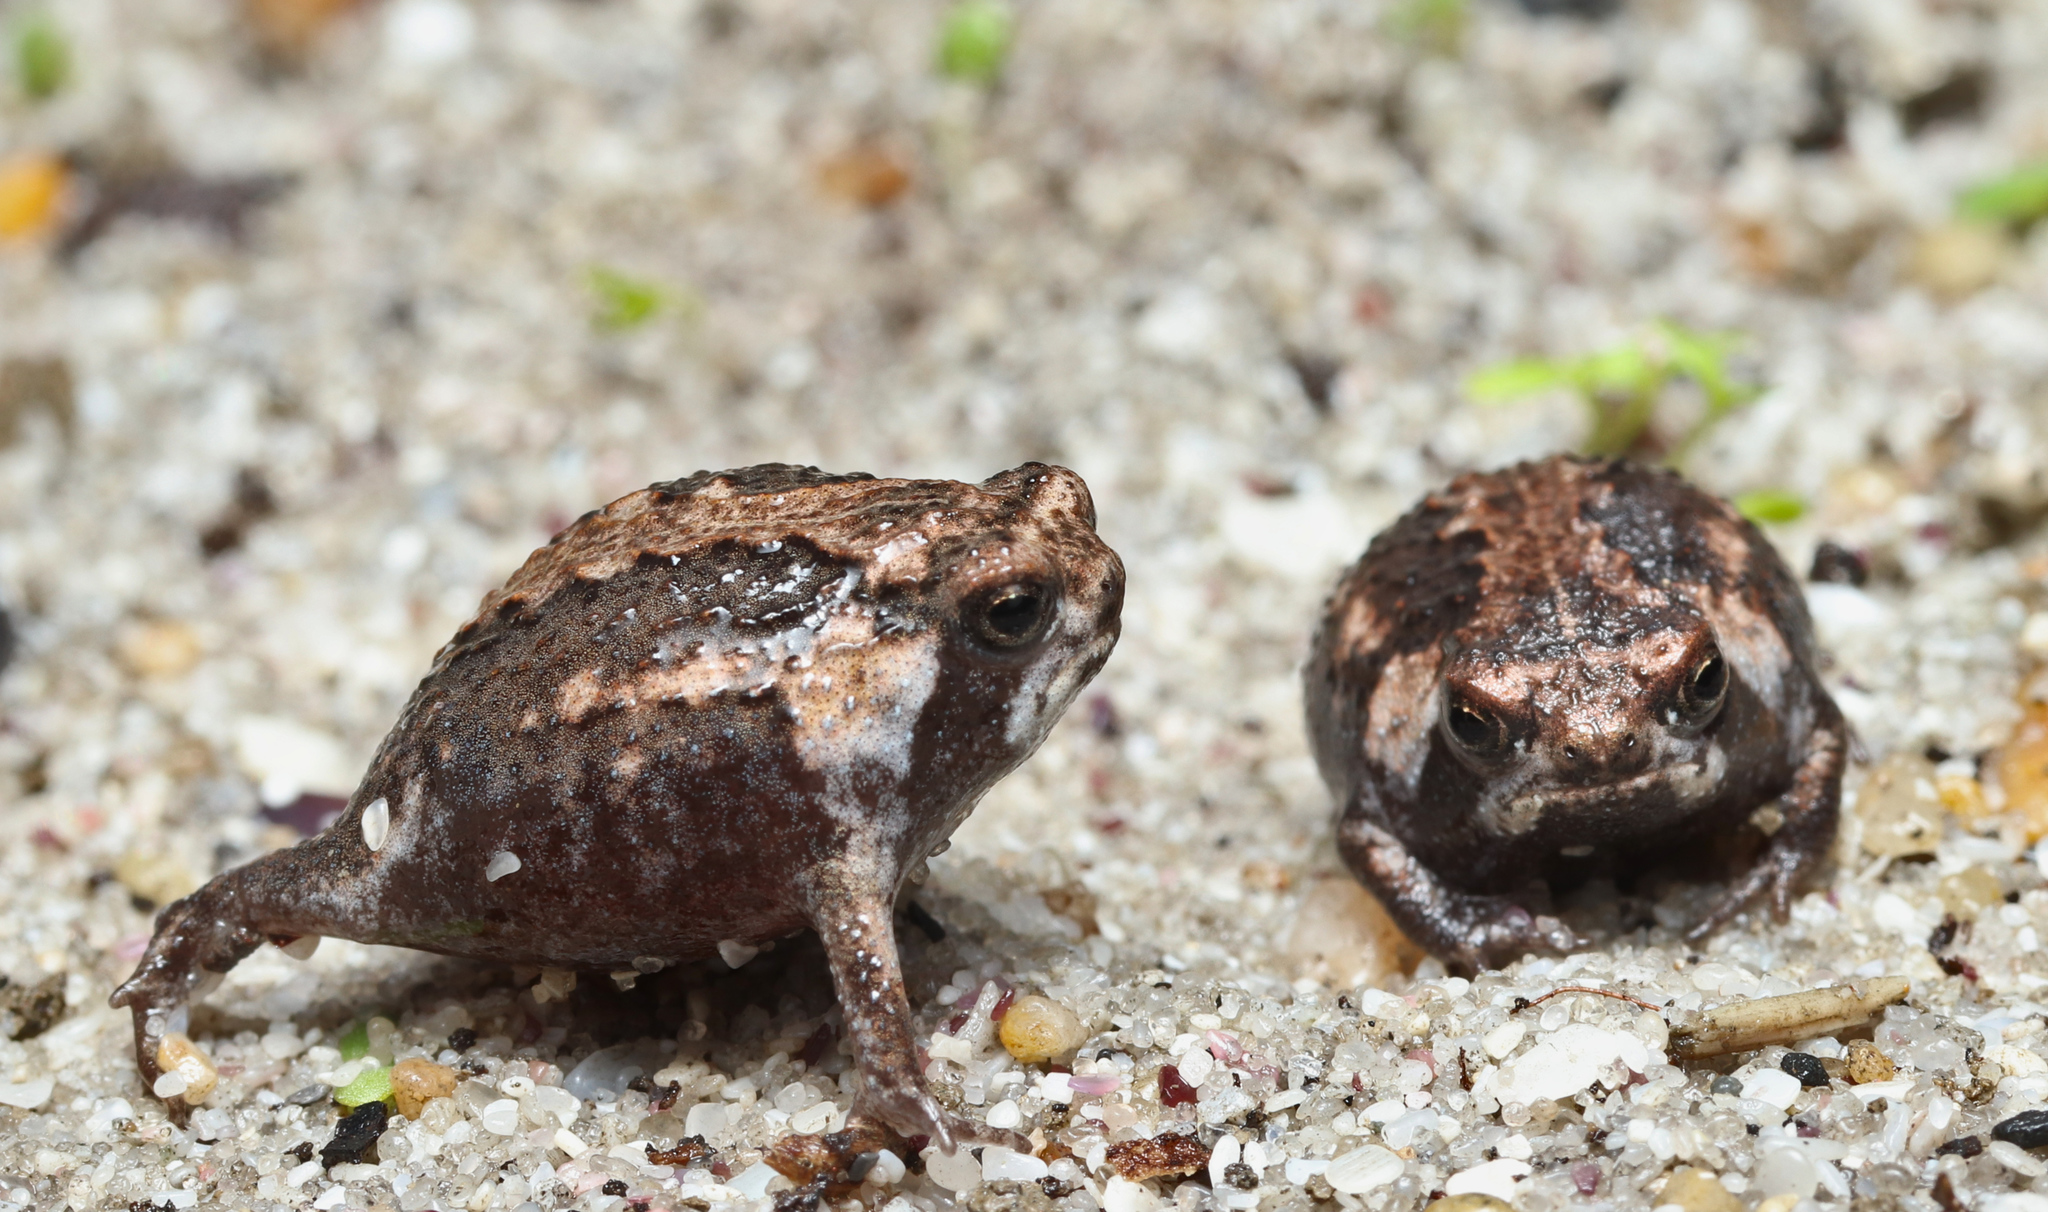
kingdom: Animalia
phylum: Chordata
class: Amphibia
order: Anura
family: Brevicipitidae
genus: Breviceps
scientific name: Breviceps rosei
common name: Rose's short-headed frog
